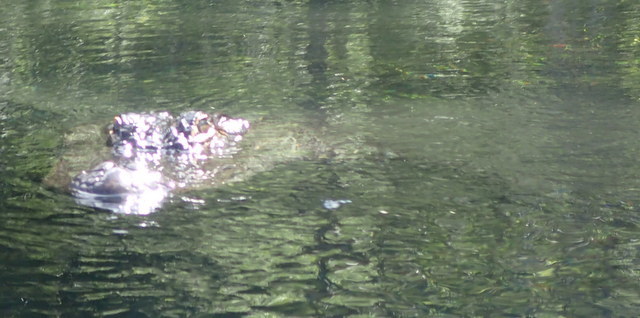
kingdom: Animalia
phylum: Chordata
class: Crocodylia
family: Alligatoridae
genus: Alligator
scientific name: Alligator mississippiensis
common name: American alligator
